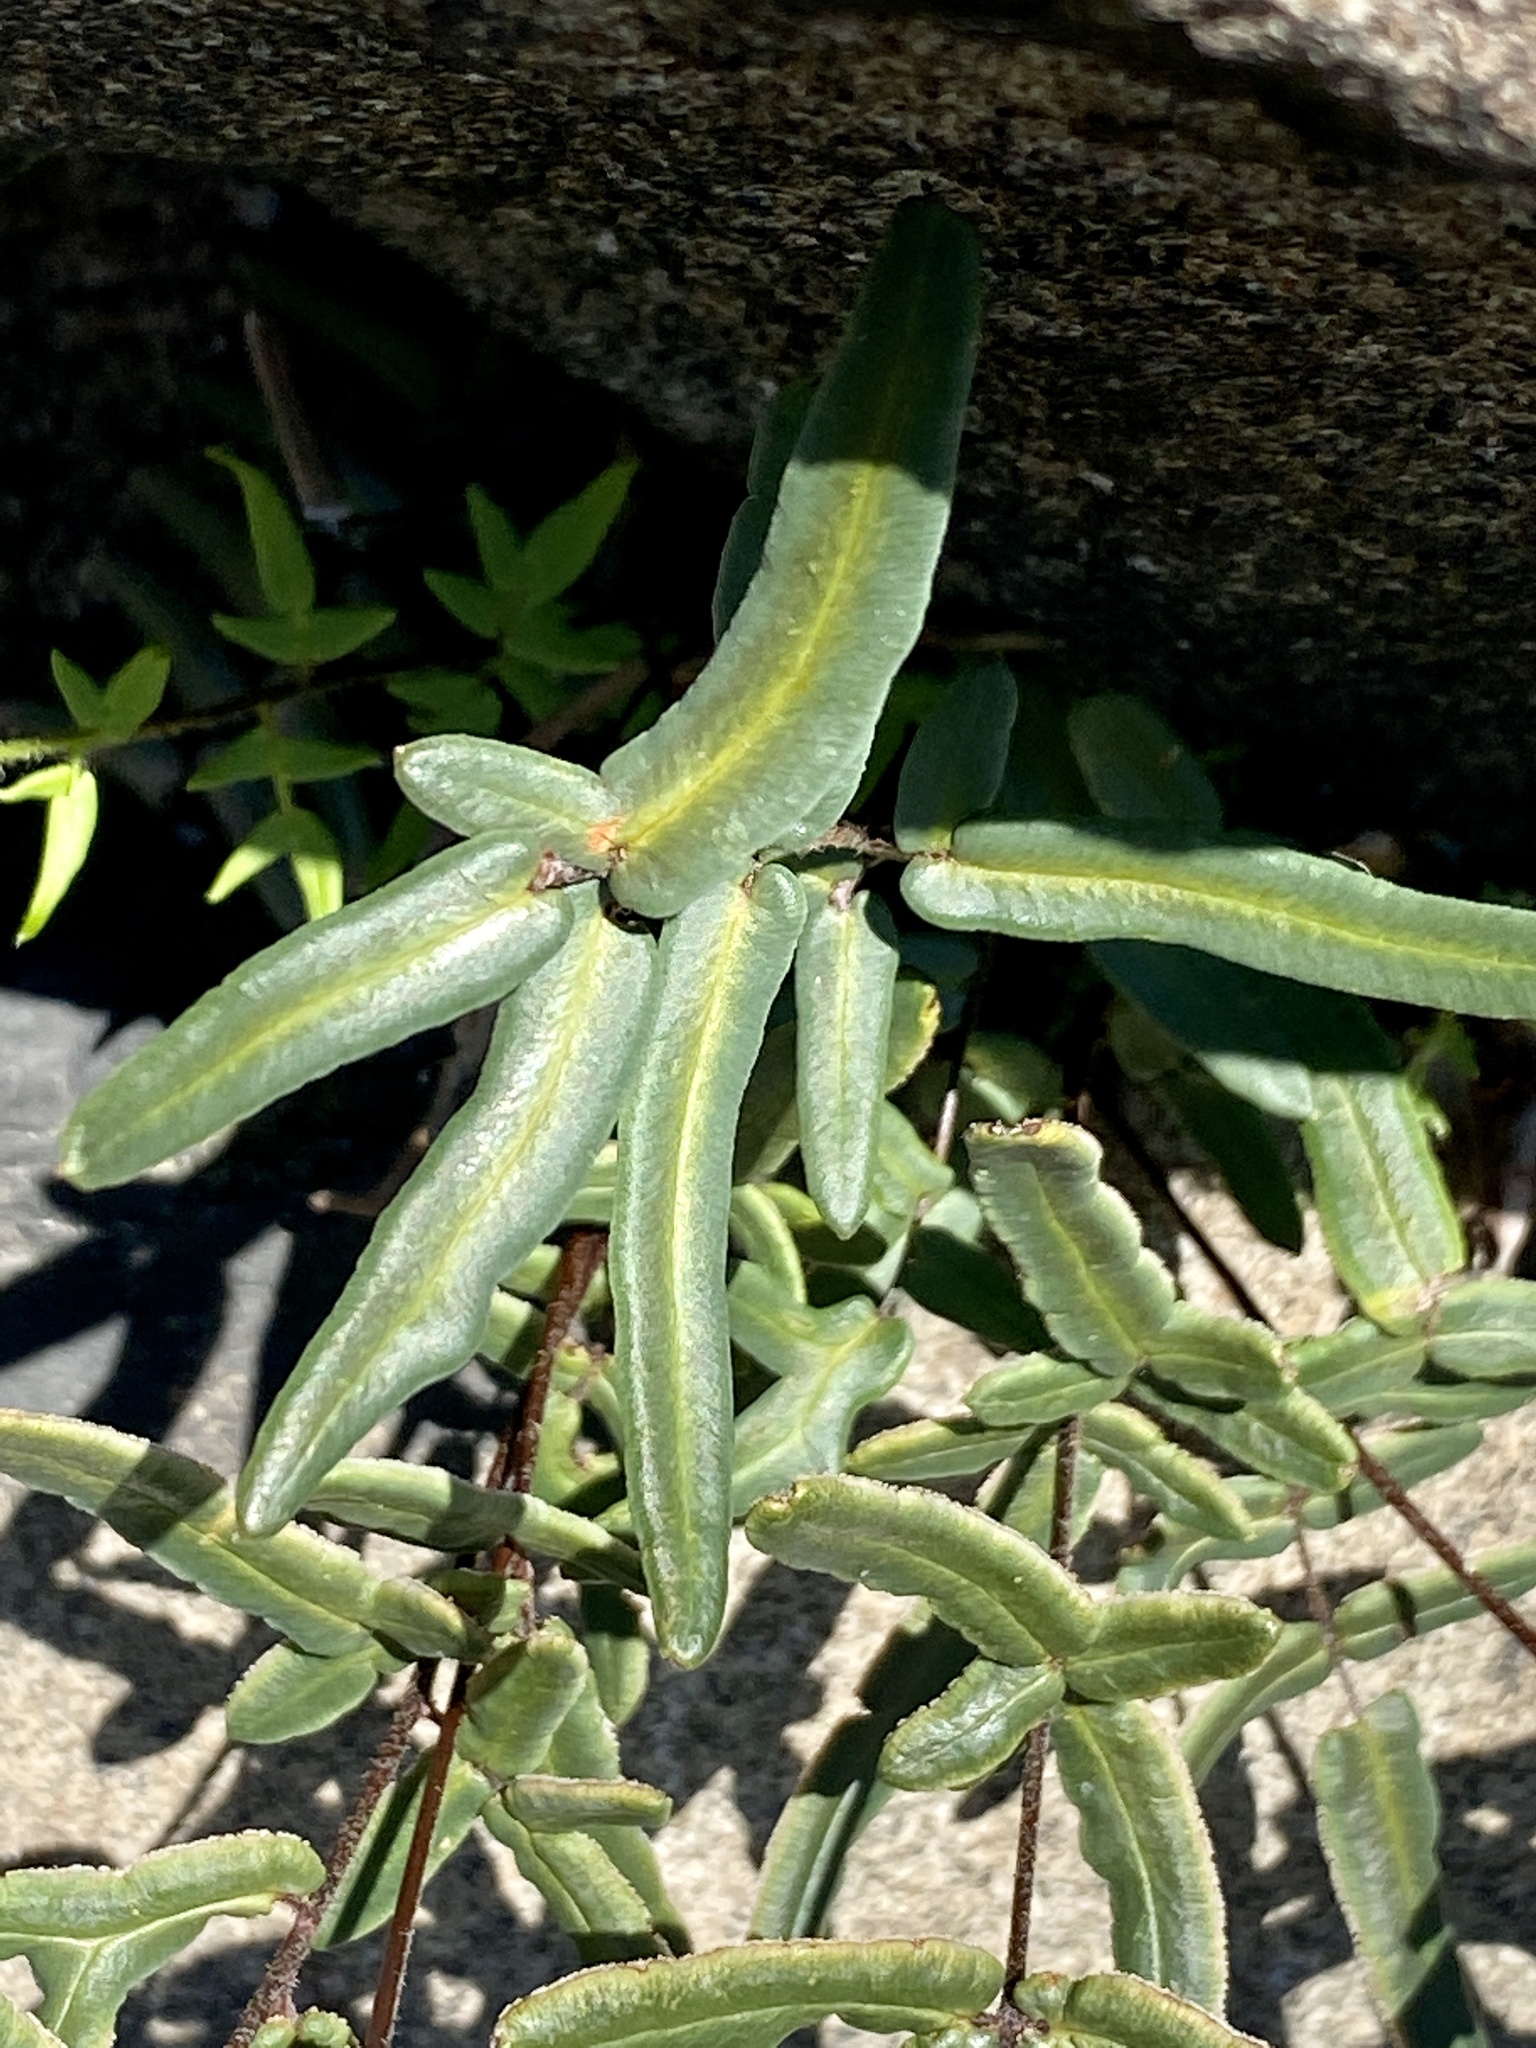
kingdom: Plantae
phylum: Tracheophyta
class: Polypodiopsida
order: Polypodiales
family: Pteridaceae
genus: Pellaea
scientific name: Pellaea atropurpurea
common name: Hairy cliffbrake
